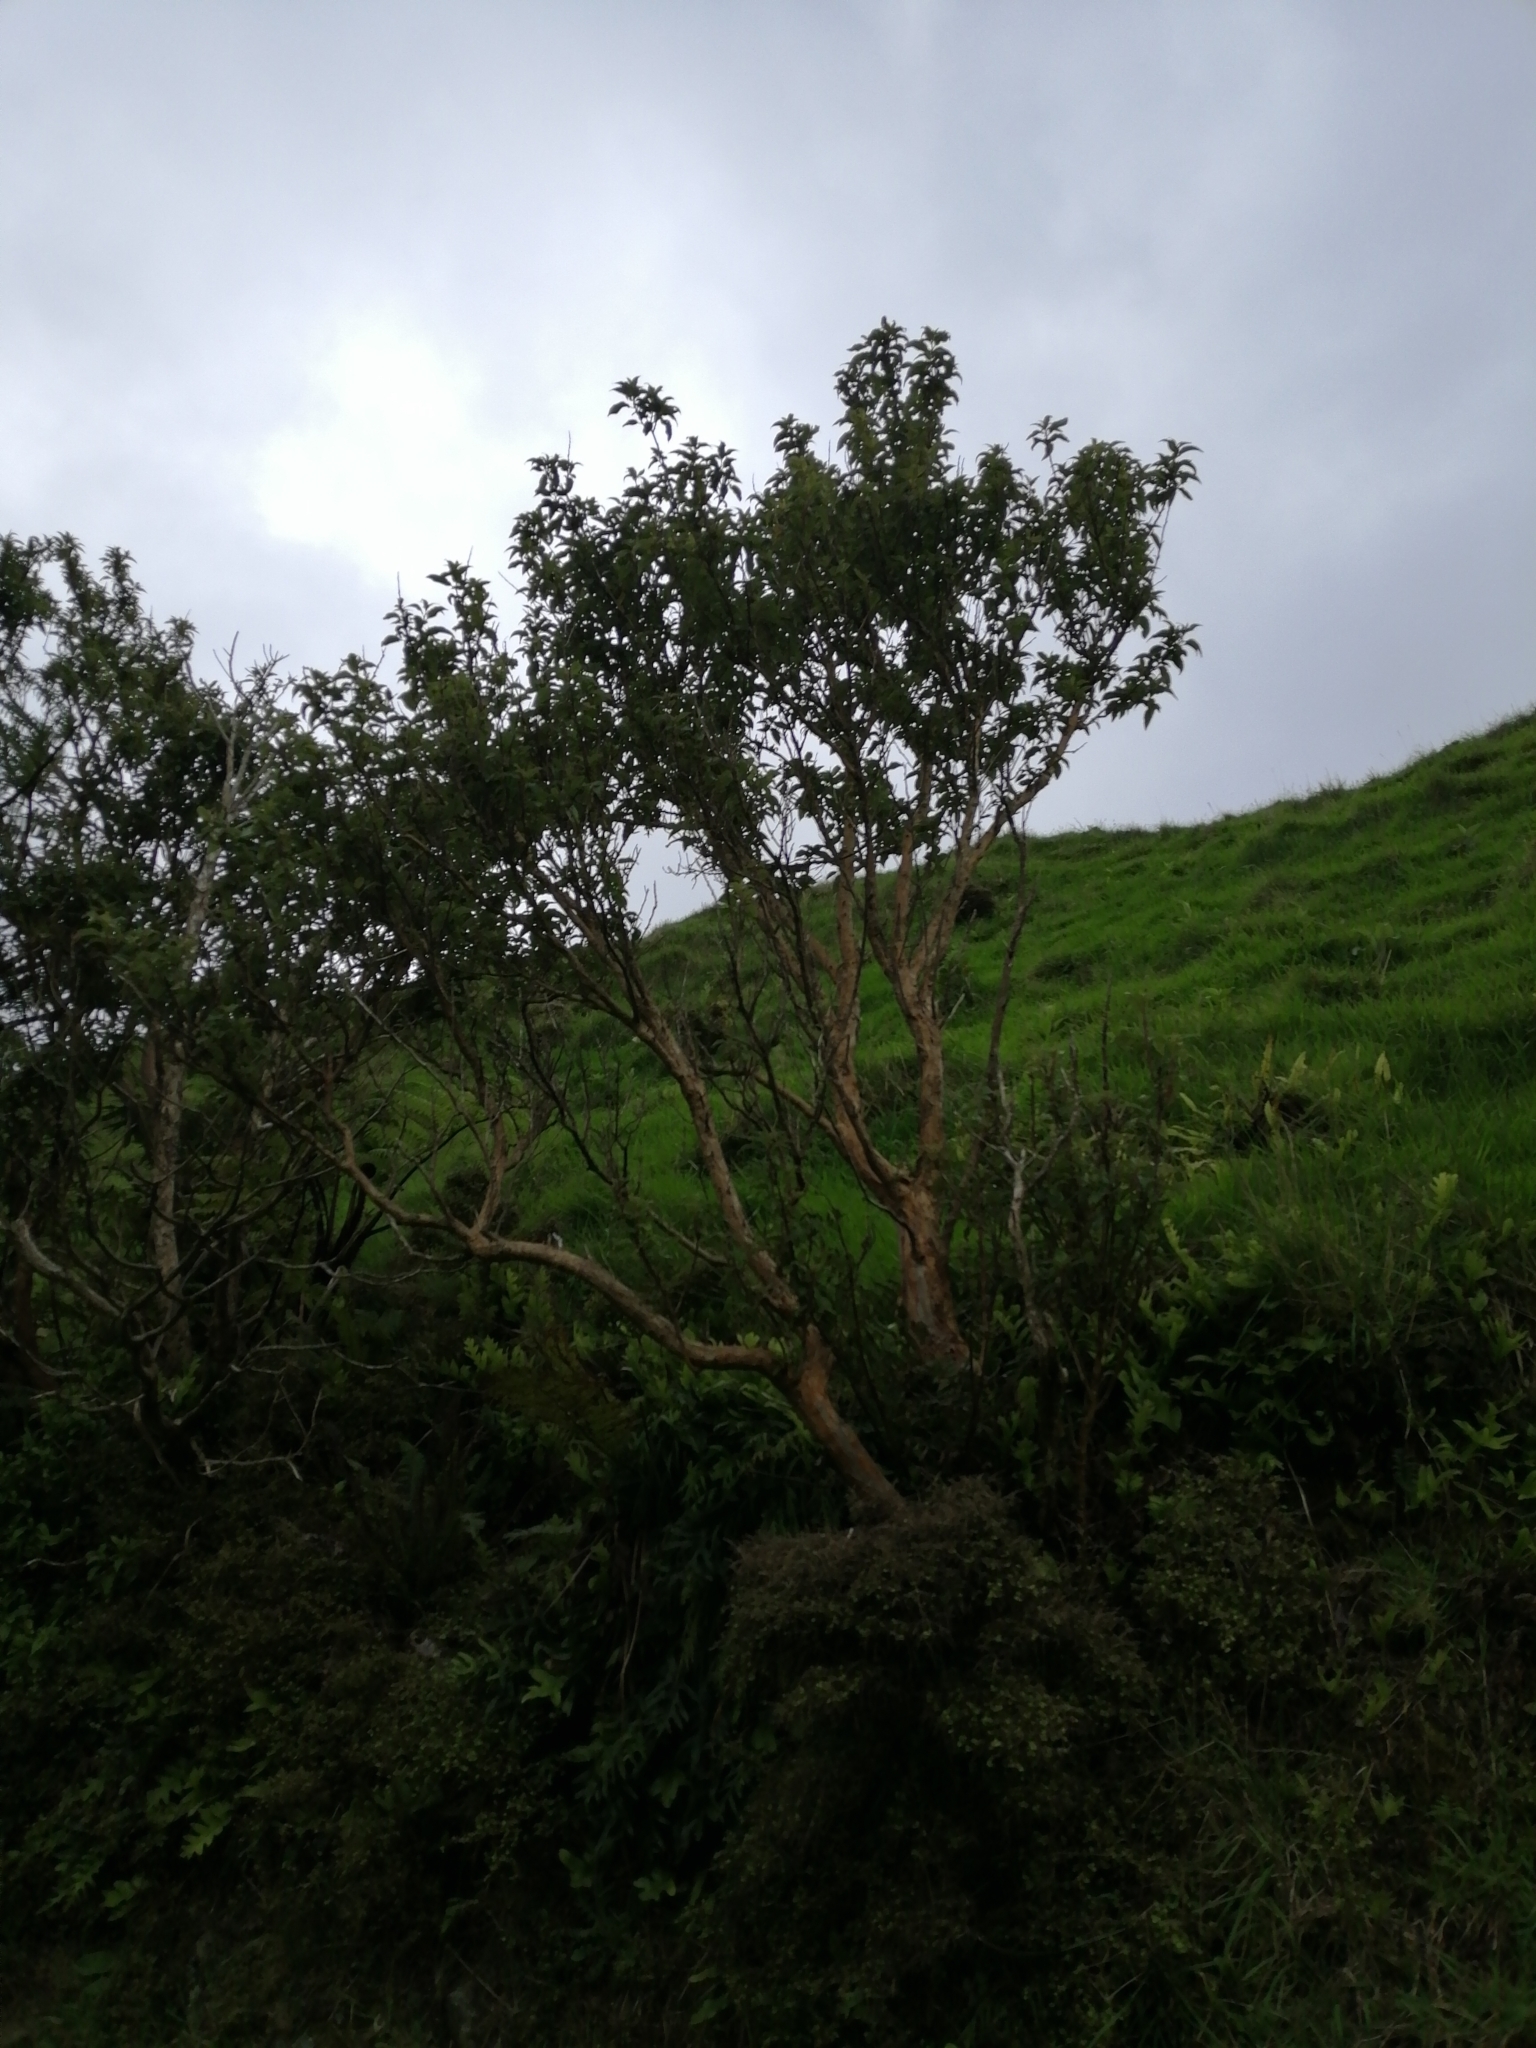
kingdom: Plantae
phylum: Tracheophyta
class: Magnoliopsida
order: Myrtales
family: Onagraceae
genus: Fuchsia
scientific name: Fuchsia excorticata
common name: Tree fuchsia
